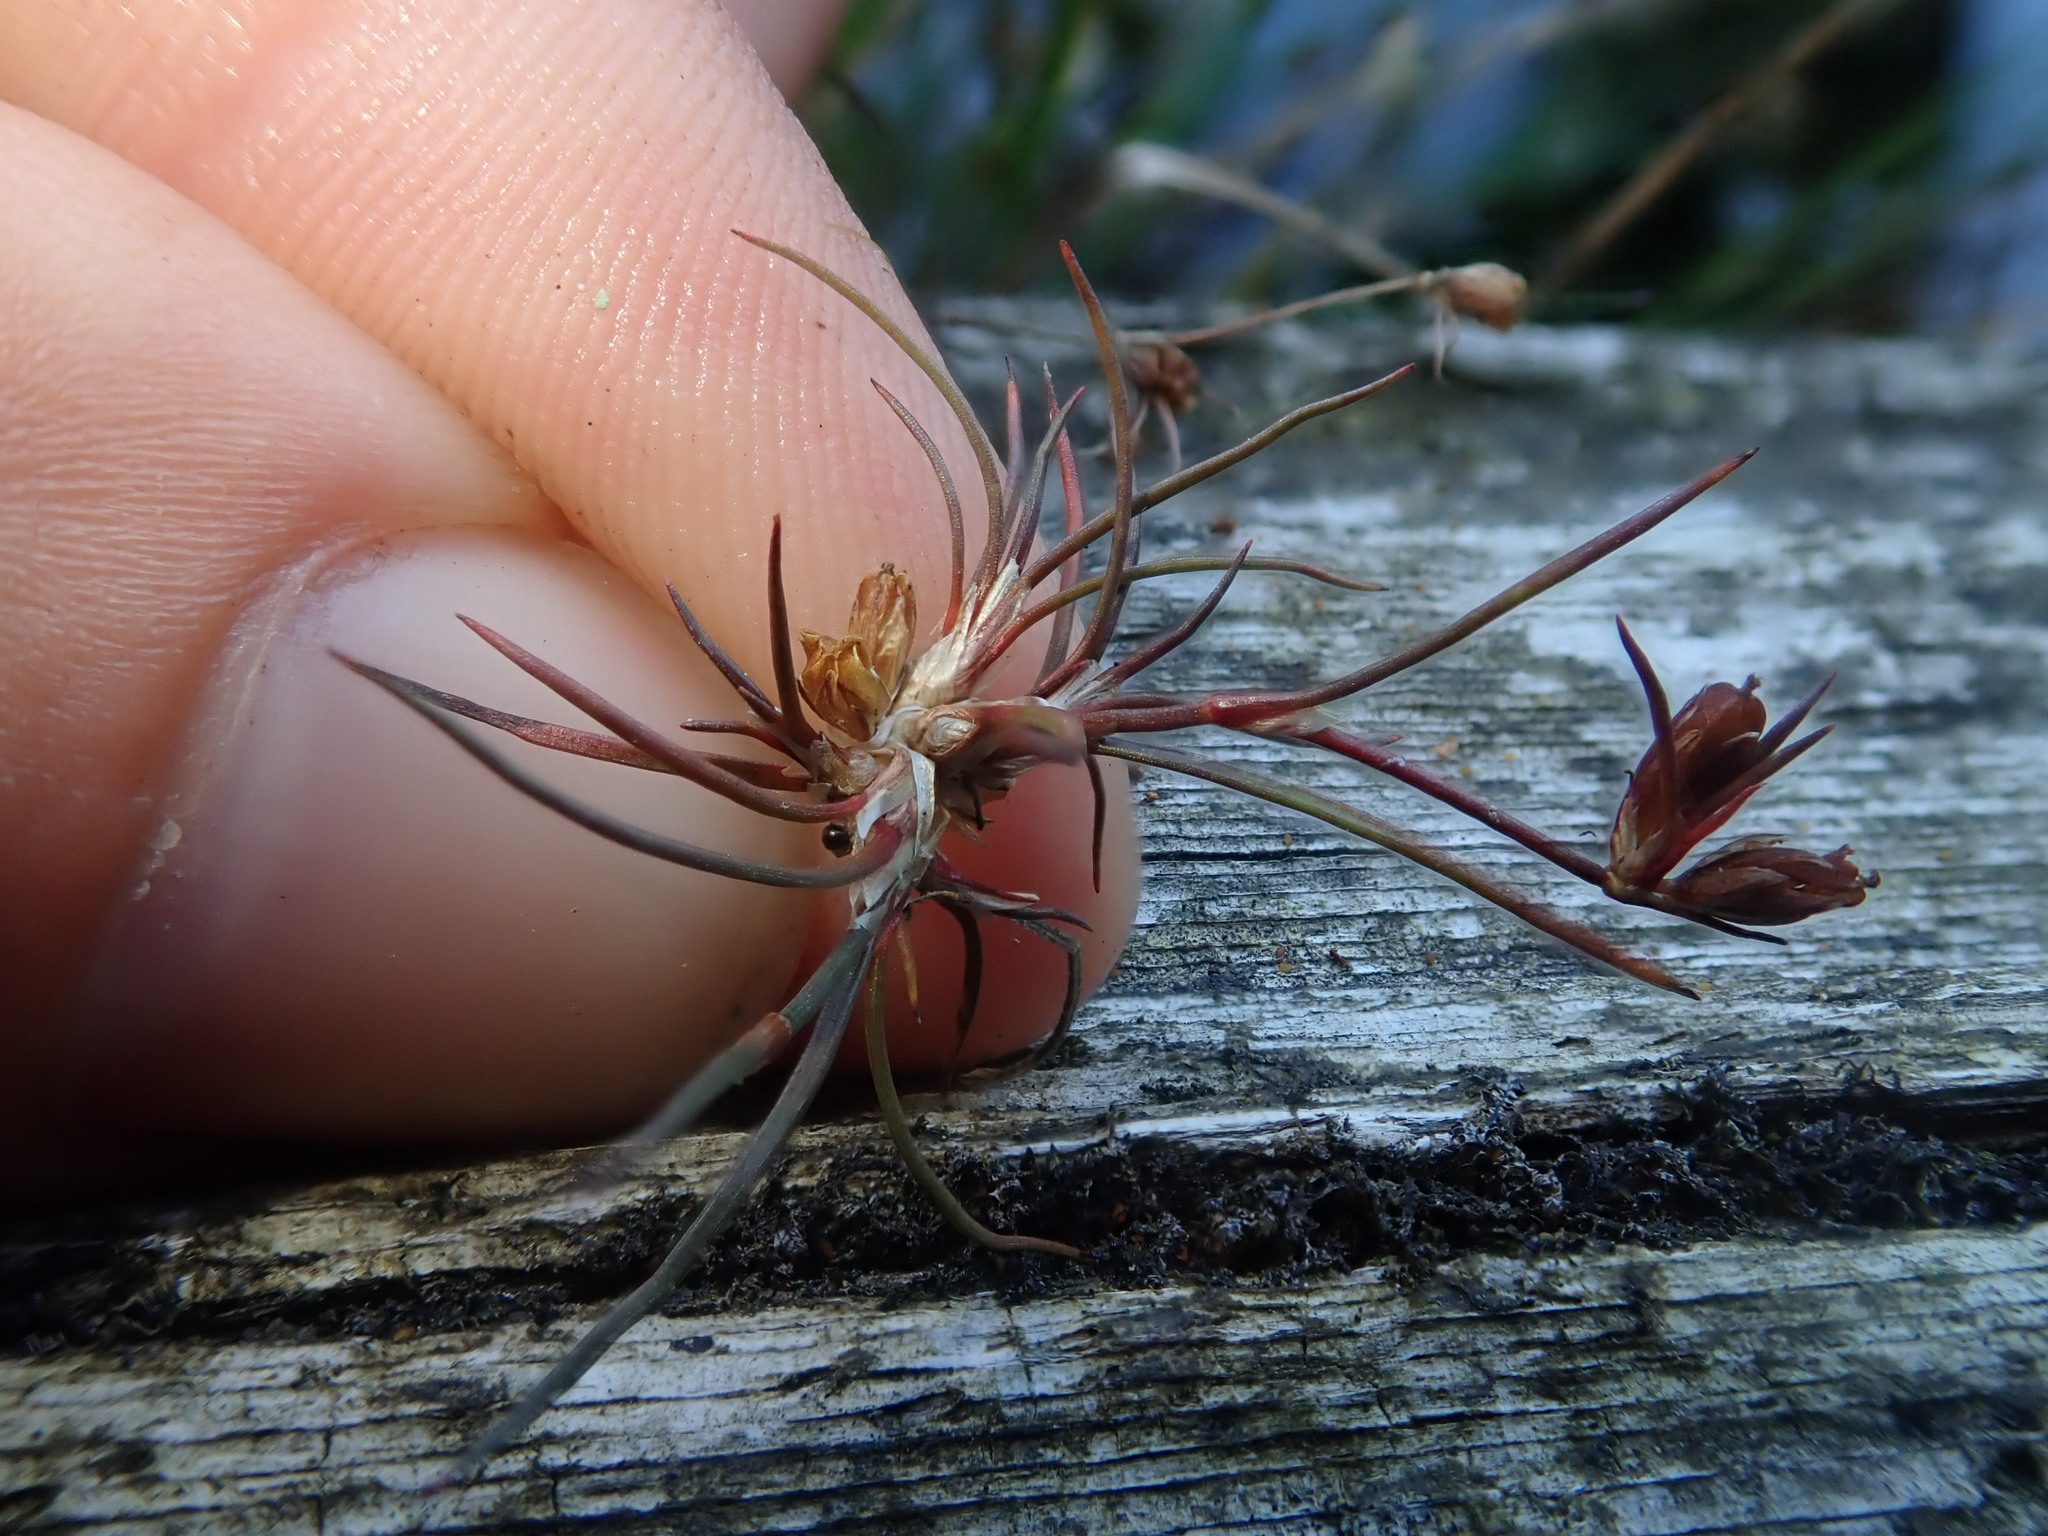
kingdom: Plantae
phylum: Tracheophyta
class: Liliopsida
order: Poales
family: Juncaceae
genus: Juncus
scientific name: Juncus supiniformis
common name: Hairy-leaved rush
